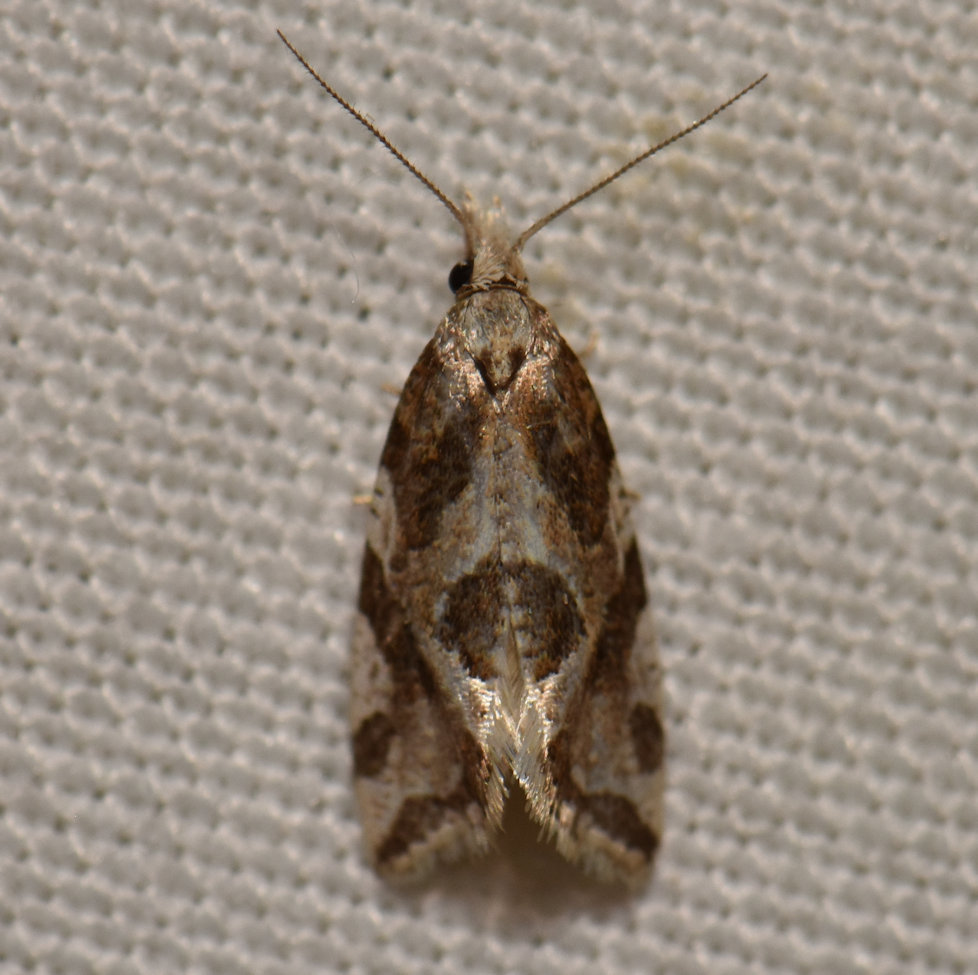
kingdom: Animalia
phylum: Arthropoda
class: Insecta
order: Lepidoptera
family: Tortricidae
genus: Aethes
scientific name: Aethes sexdentata
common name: Six-toothed aethes
